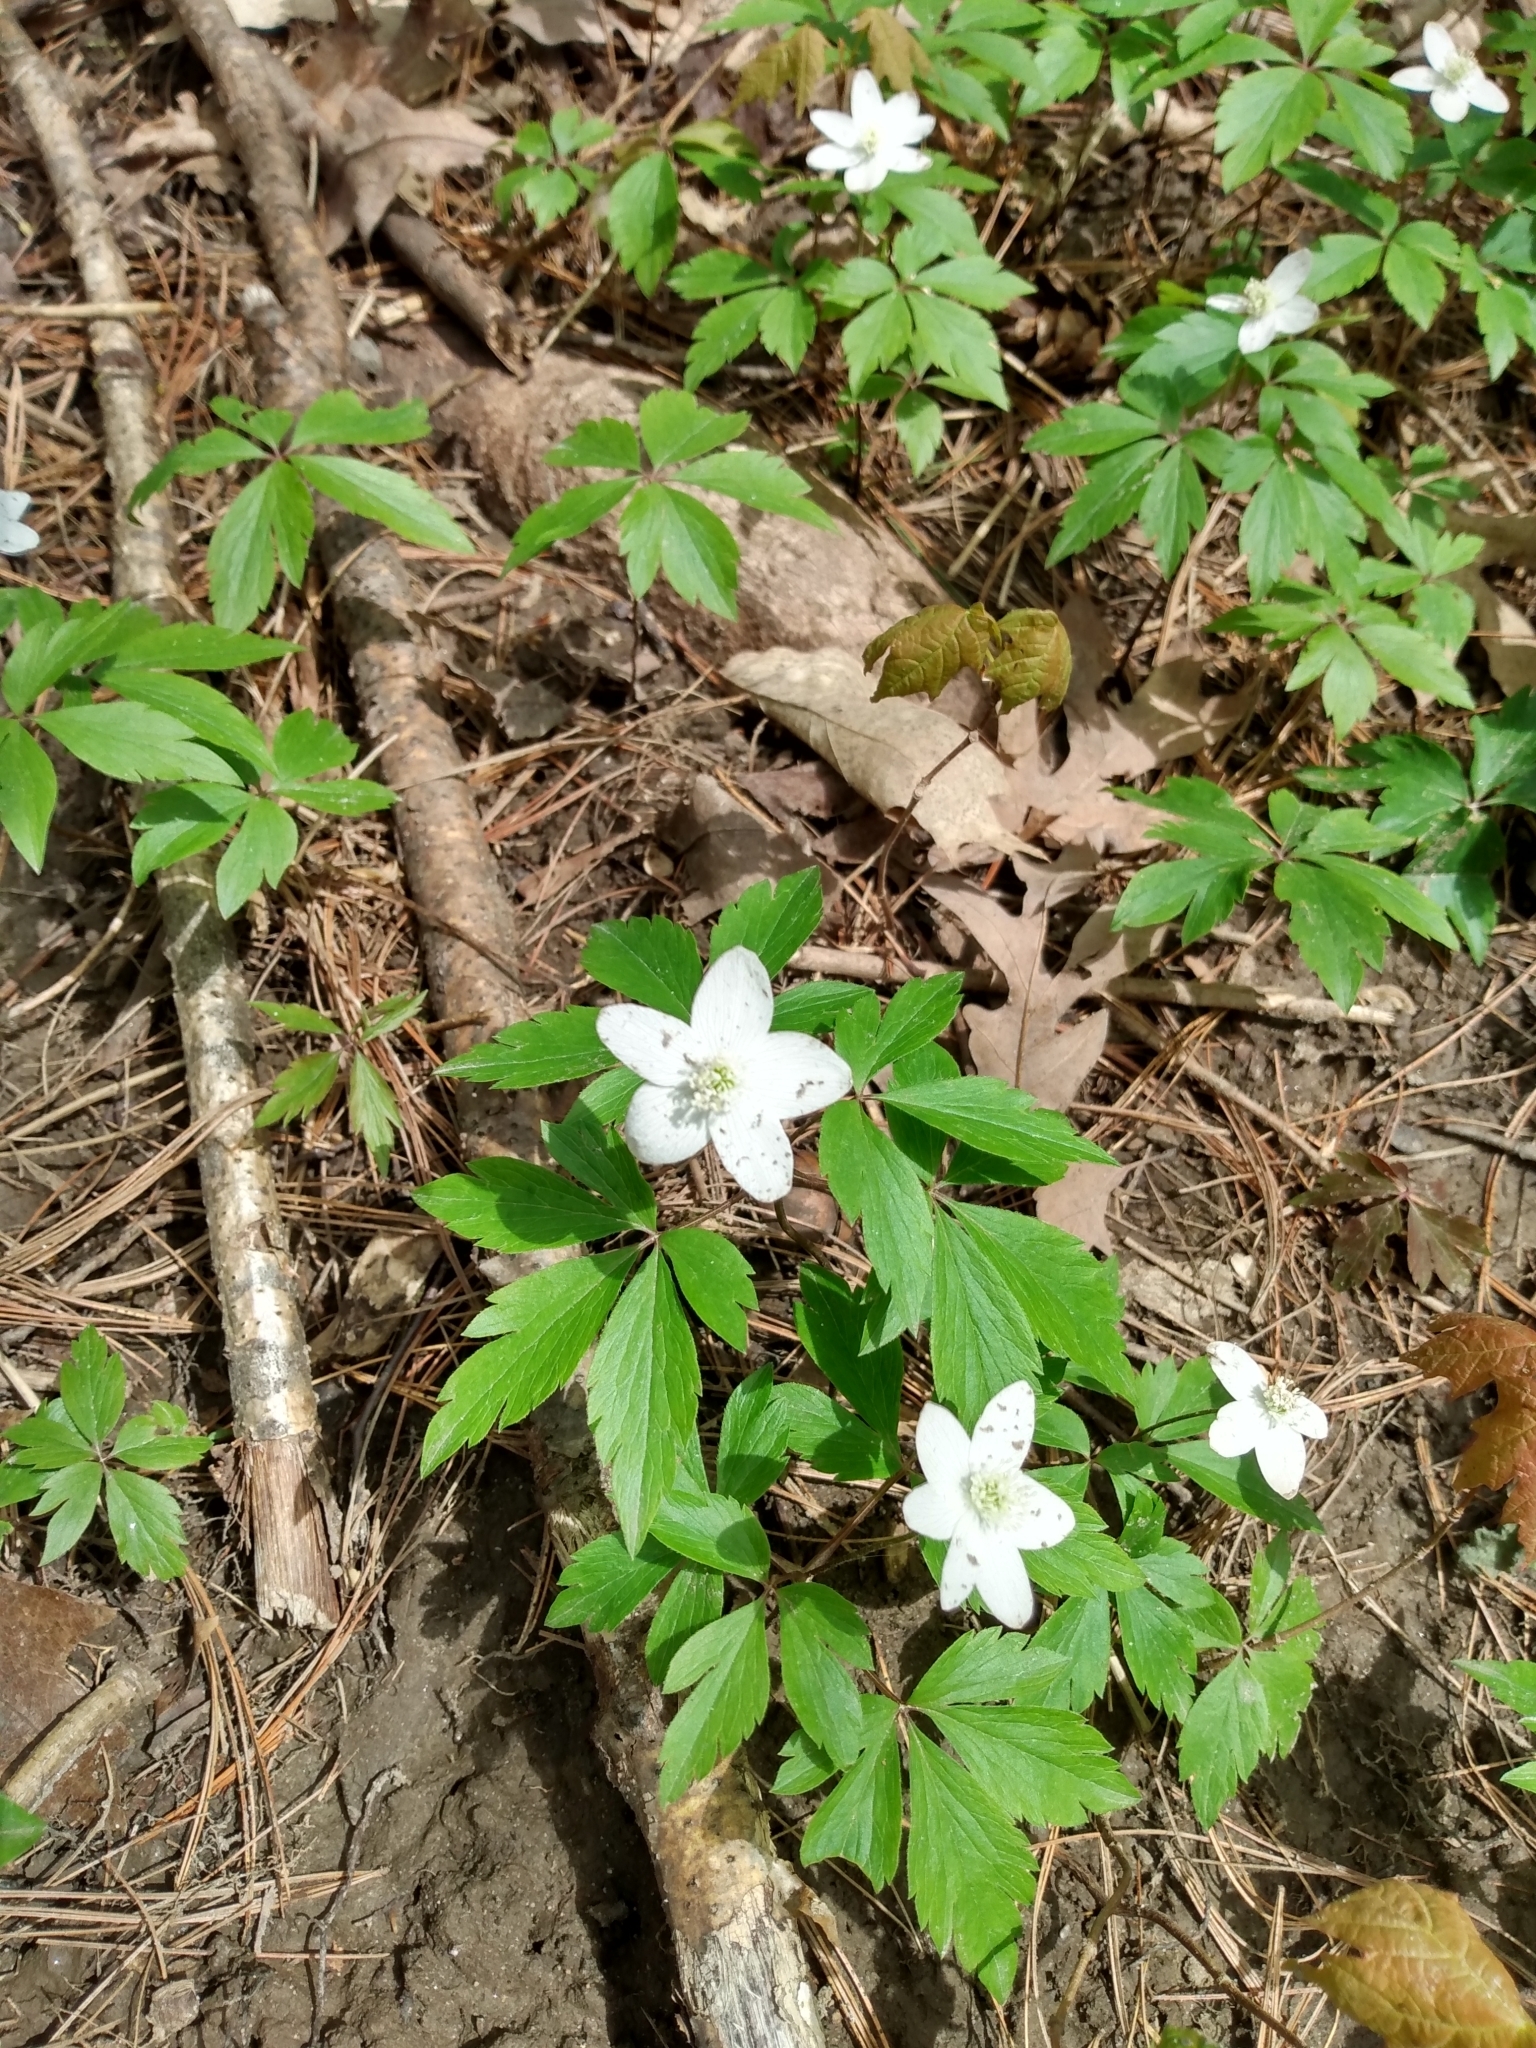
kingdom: Plantae
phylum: Tracheophyta
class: Magnoliopsida
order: Ranunculales
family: Ranunculaceae
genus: Anemone
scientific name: Anemone quinquefolia
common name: Wood anemone
